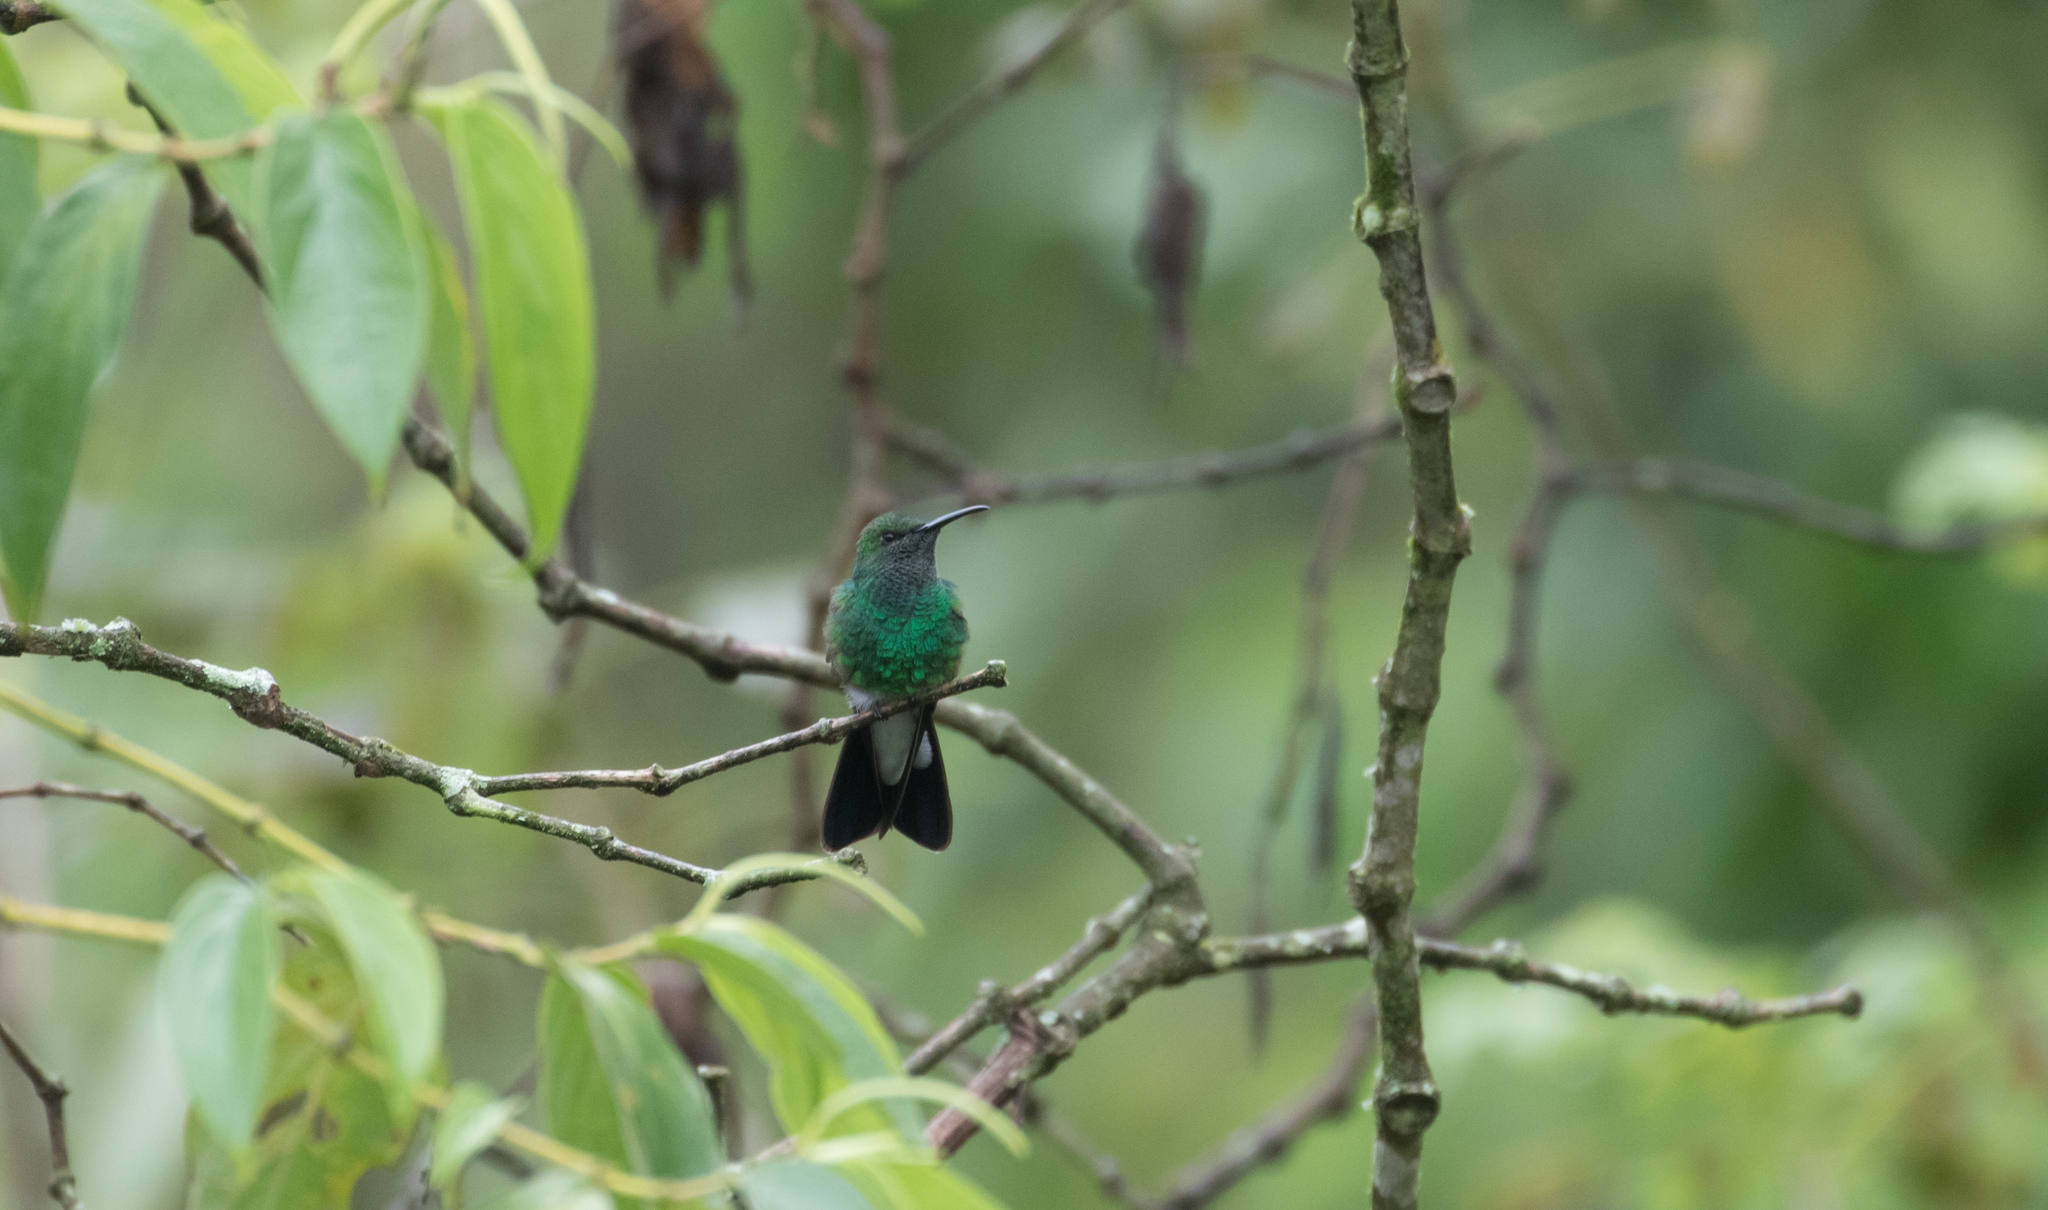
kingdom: Animalia
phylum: Chordata
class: Aves
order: Apodiformes
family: Trochilidae
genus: Chalybura
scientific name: Chalybura buffonii
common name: White-vented plumeleteer
